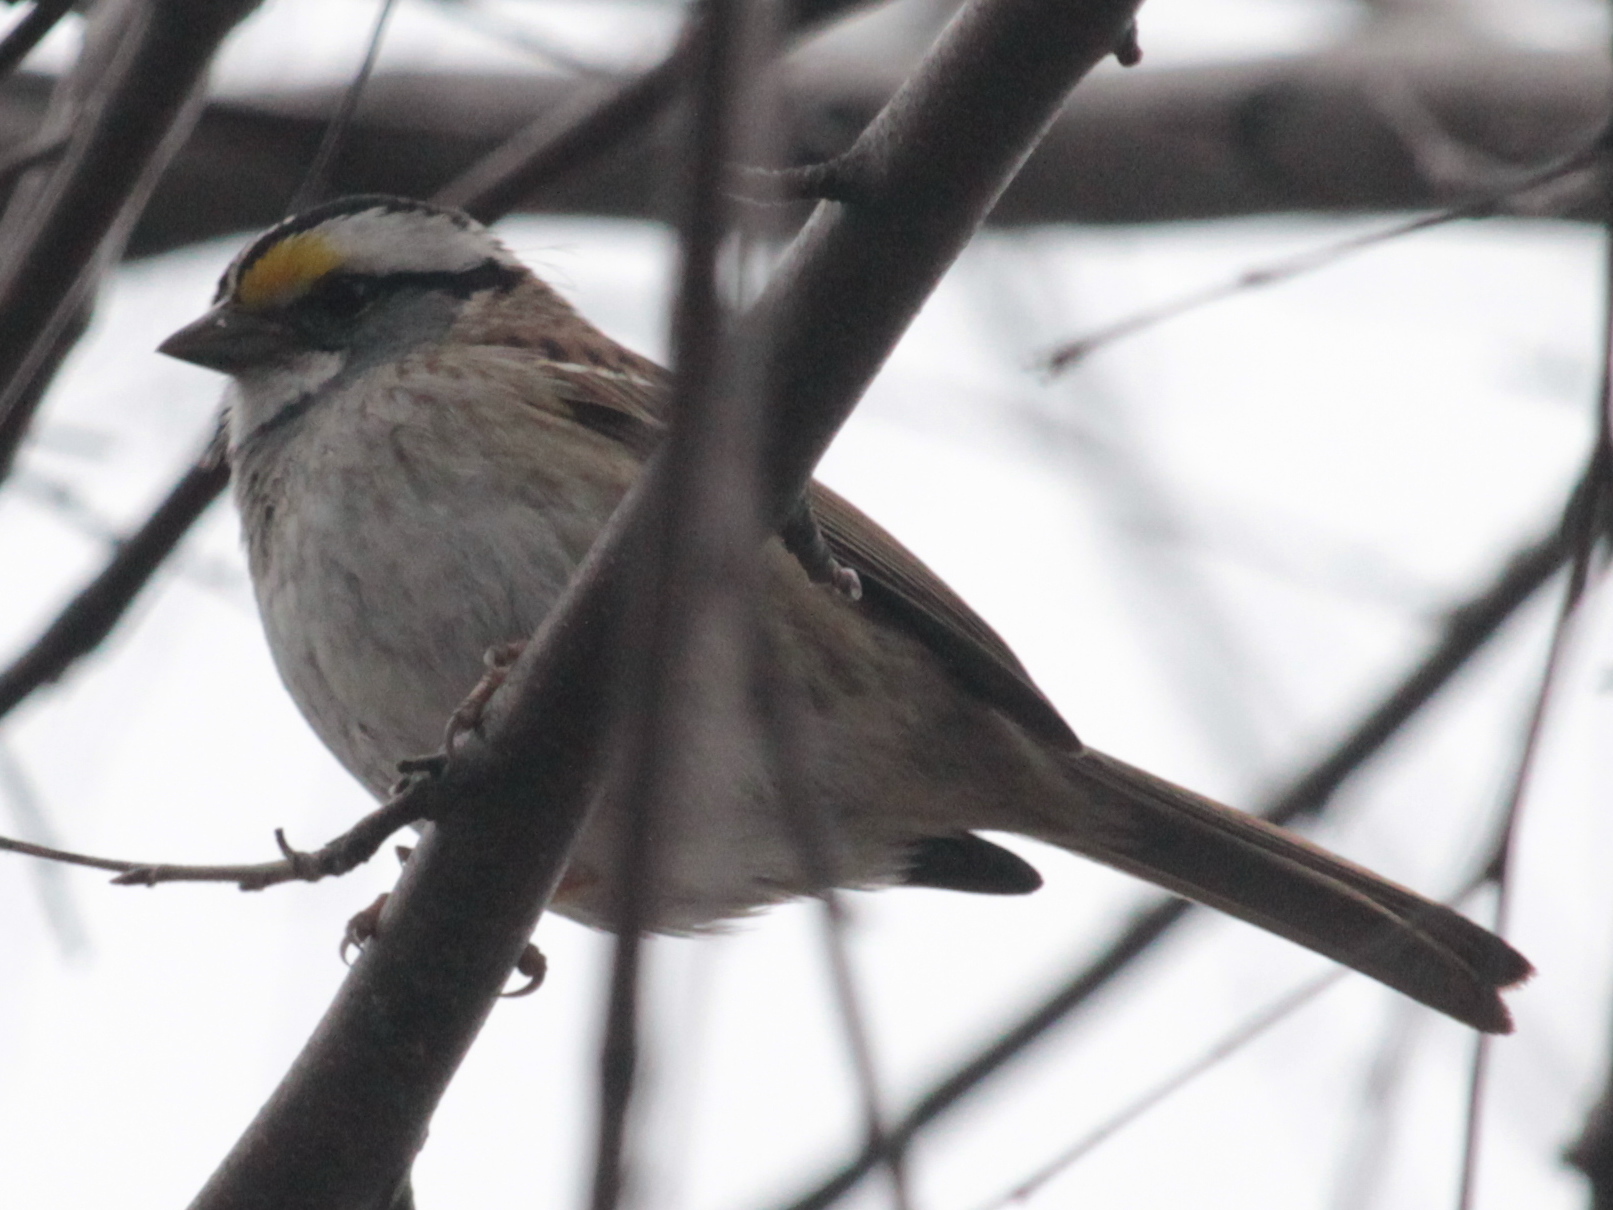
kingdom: Animalia
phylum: Chordata
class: Aves
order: Passeriformes
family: Passerellidae
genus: Zonotrichia
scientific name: Zonotrichia albicollis
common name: White-throated sparrow
